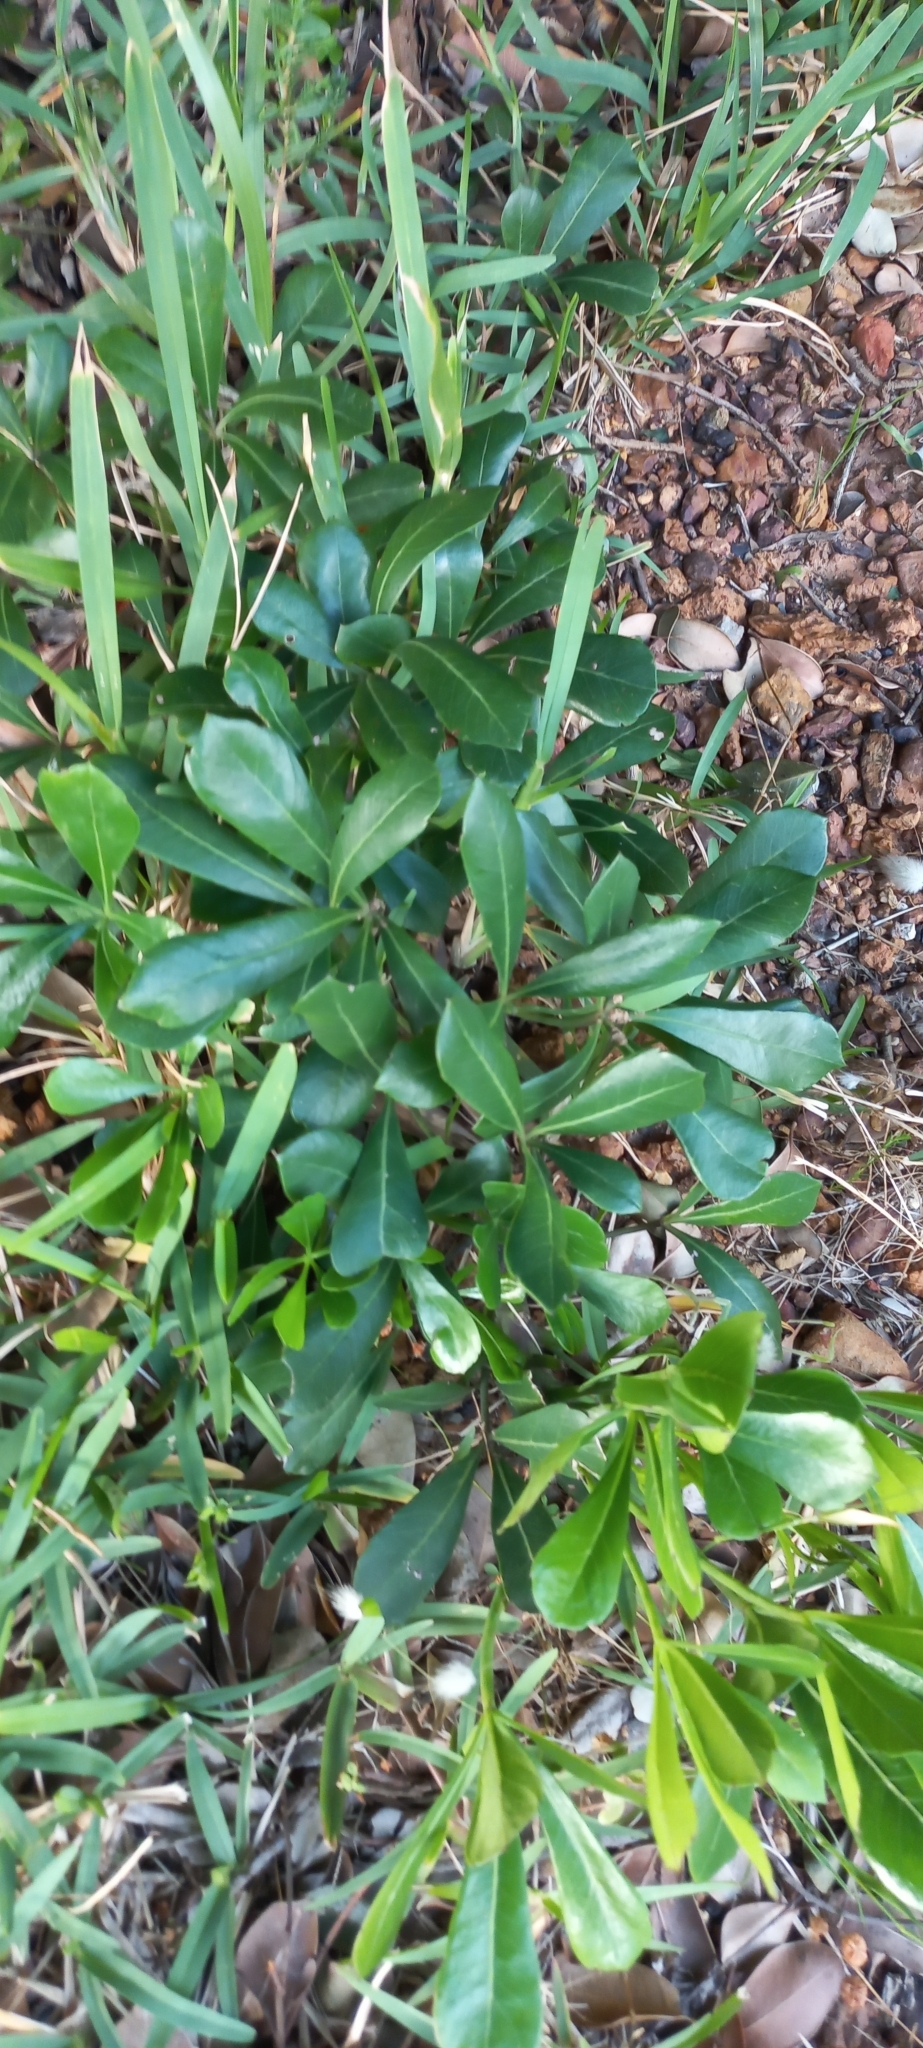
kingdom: Plantae
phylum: Tracheophyta
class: Magnoliopsida
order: Apiales
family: Araliaceae
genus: Cussonia
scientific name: Cussonia thyrsiflora
